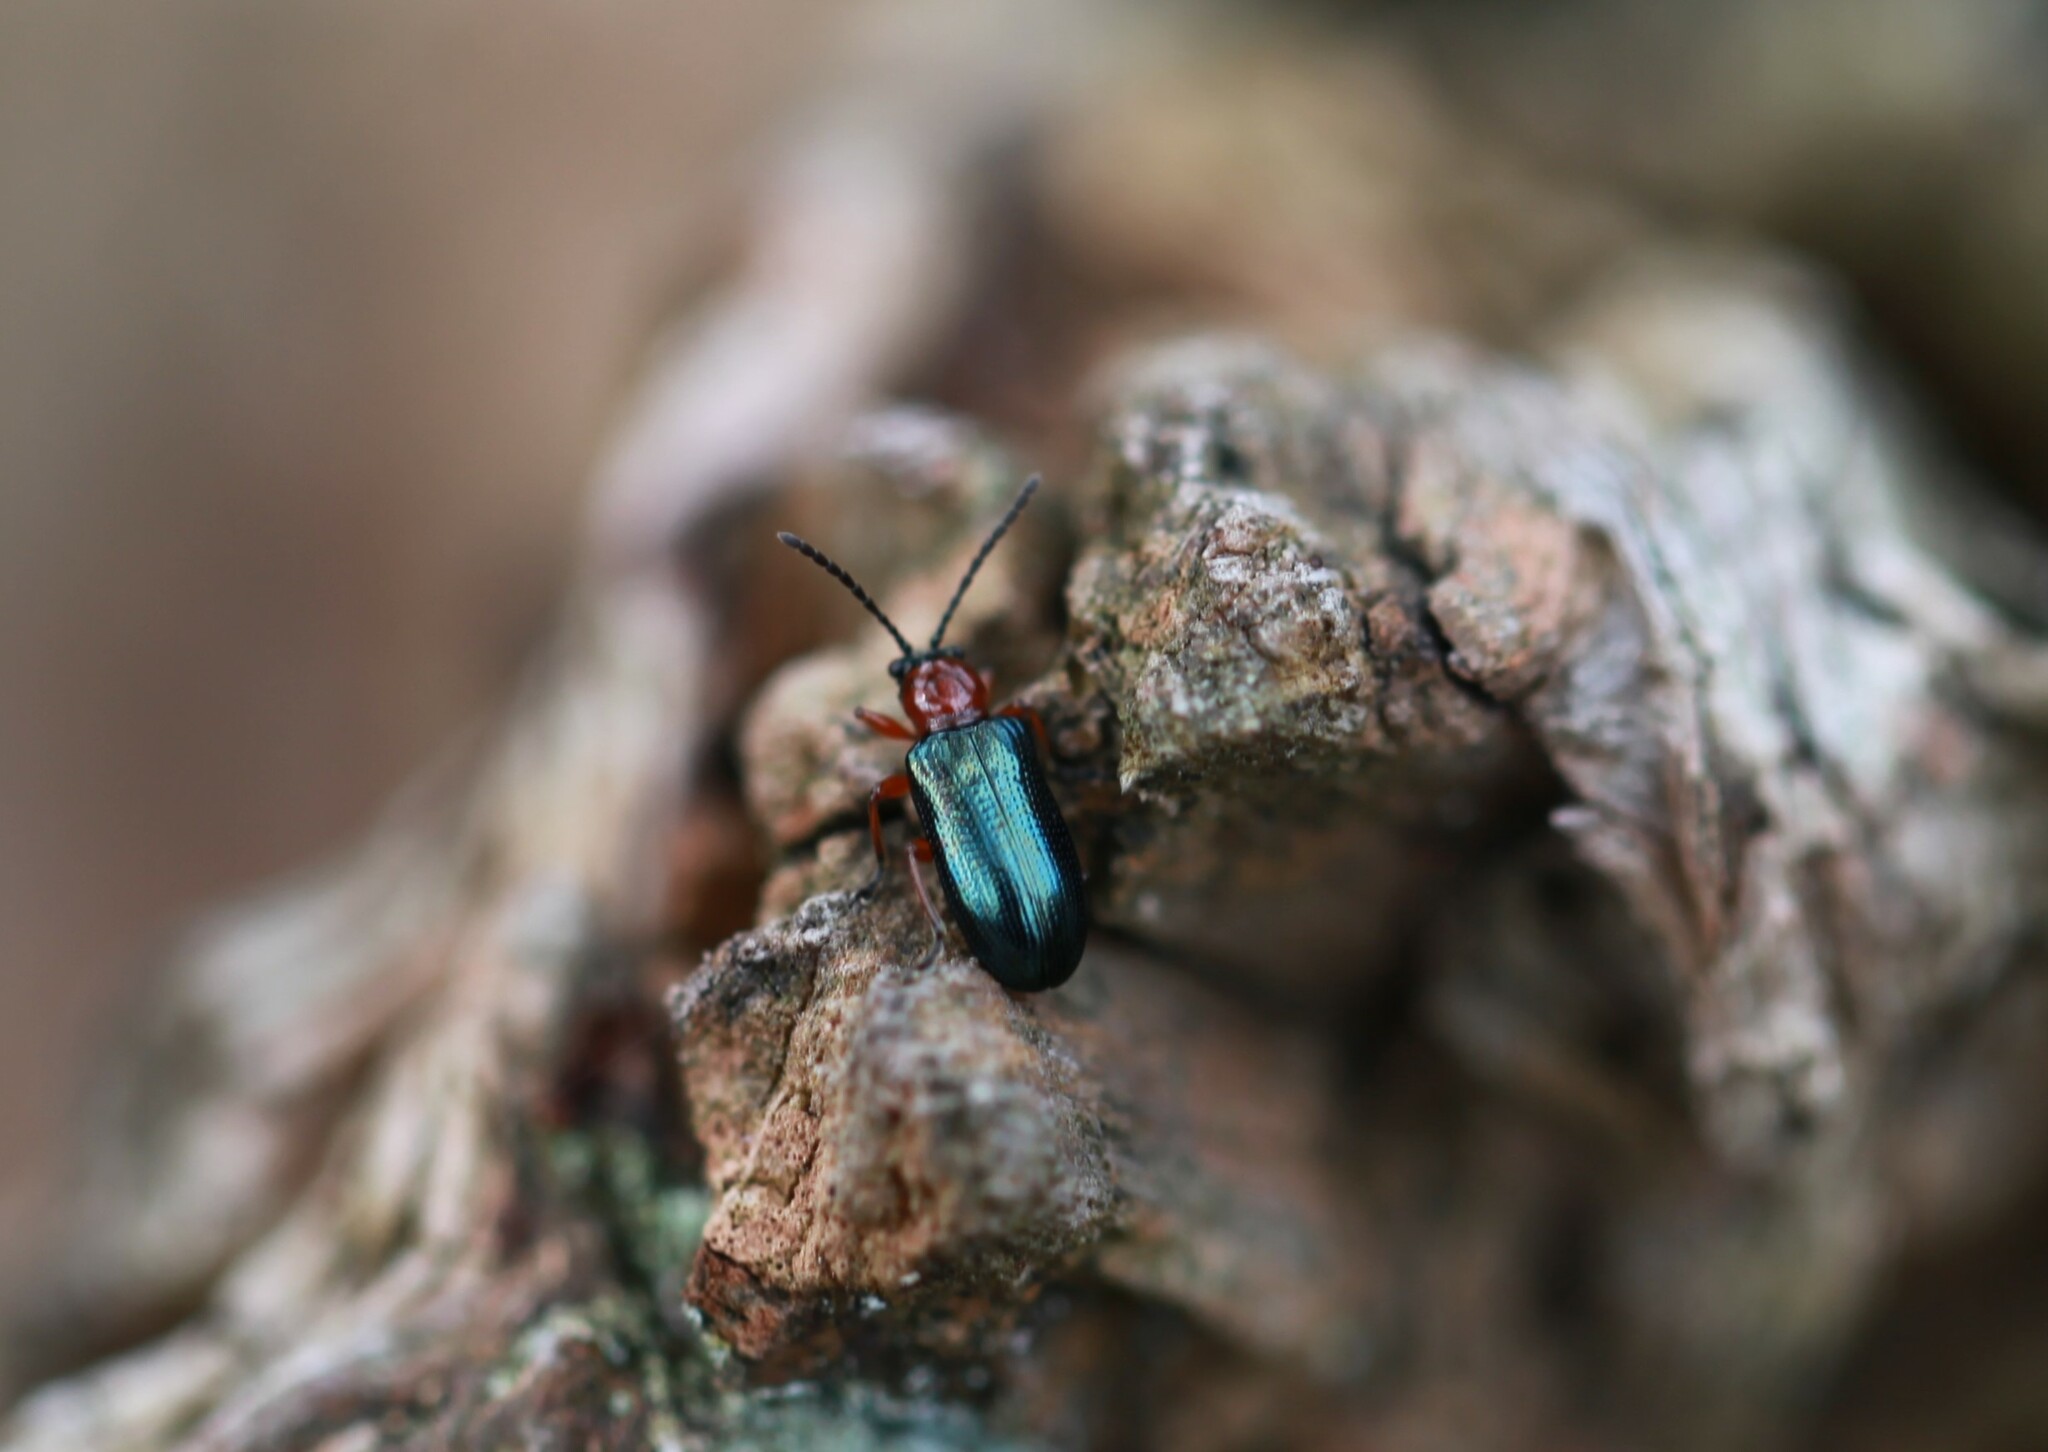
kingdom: Animalia
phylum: Arthropoda
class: Insecta
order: Coleoptera
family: Chrysomelidae
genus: Oulema
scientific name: Oulema
